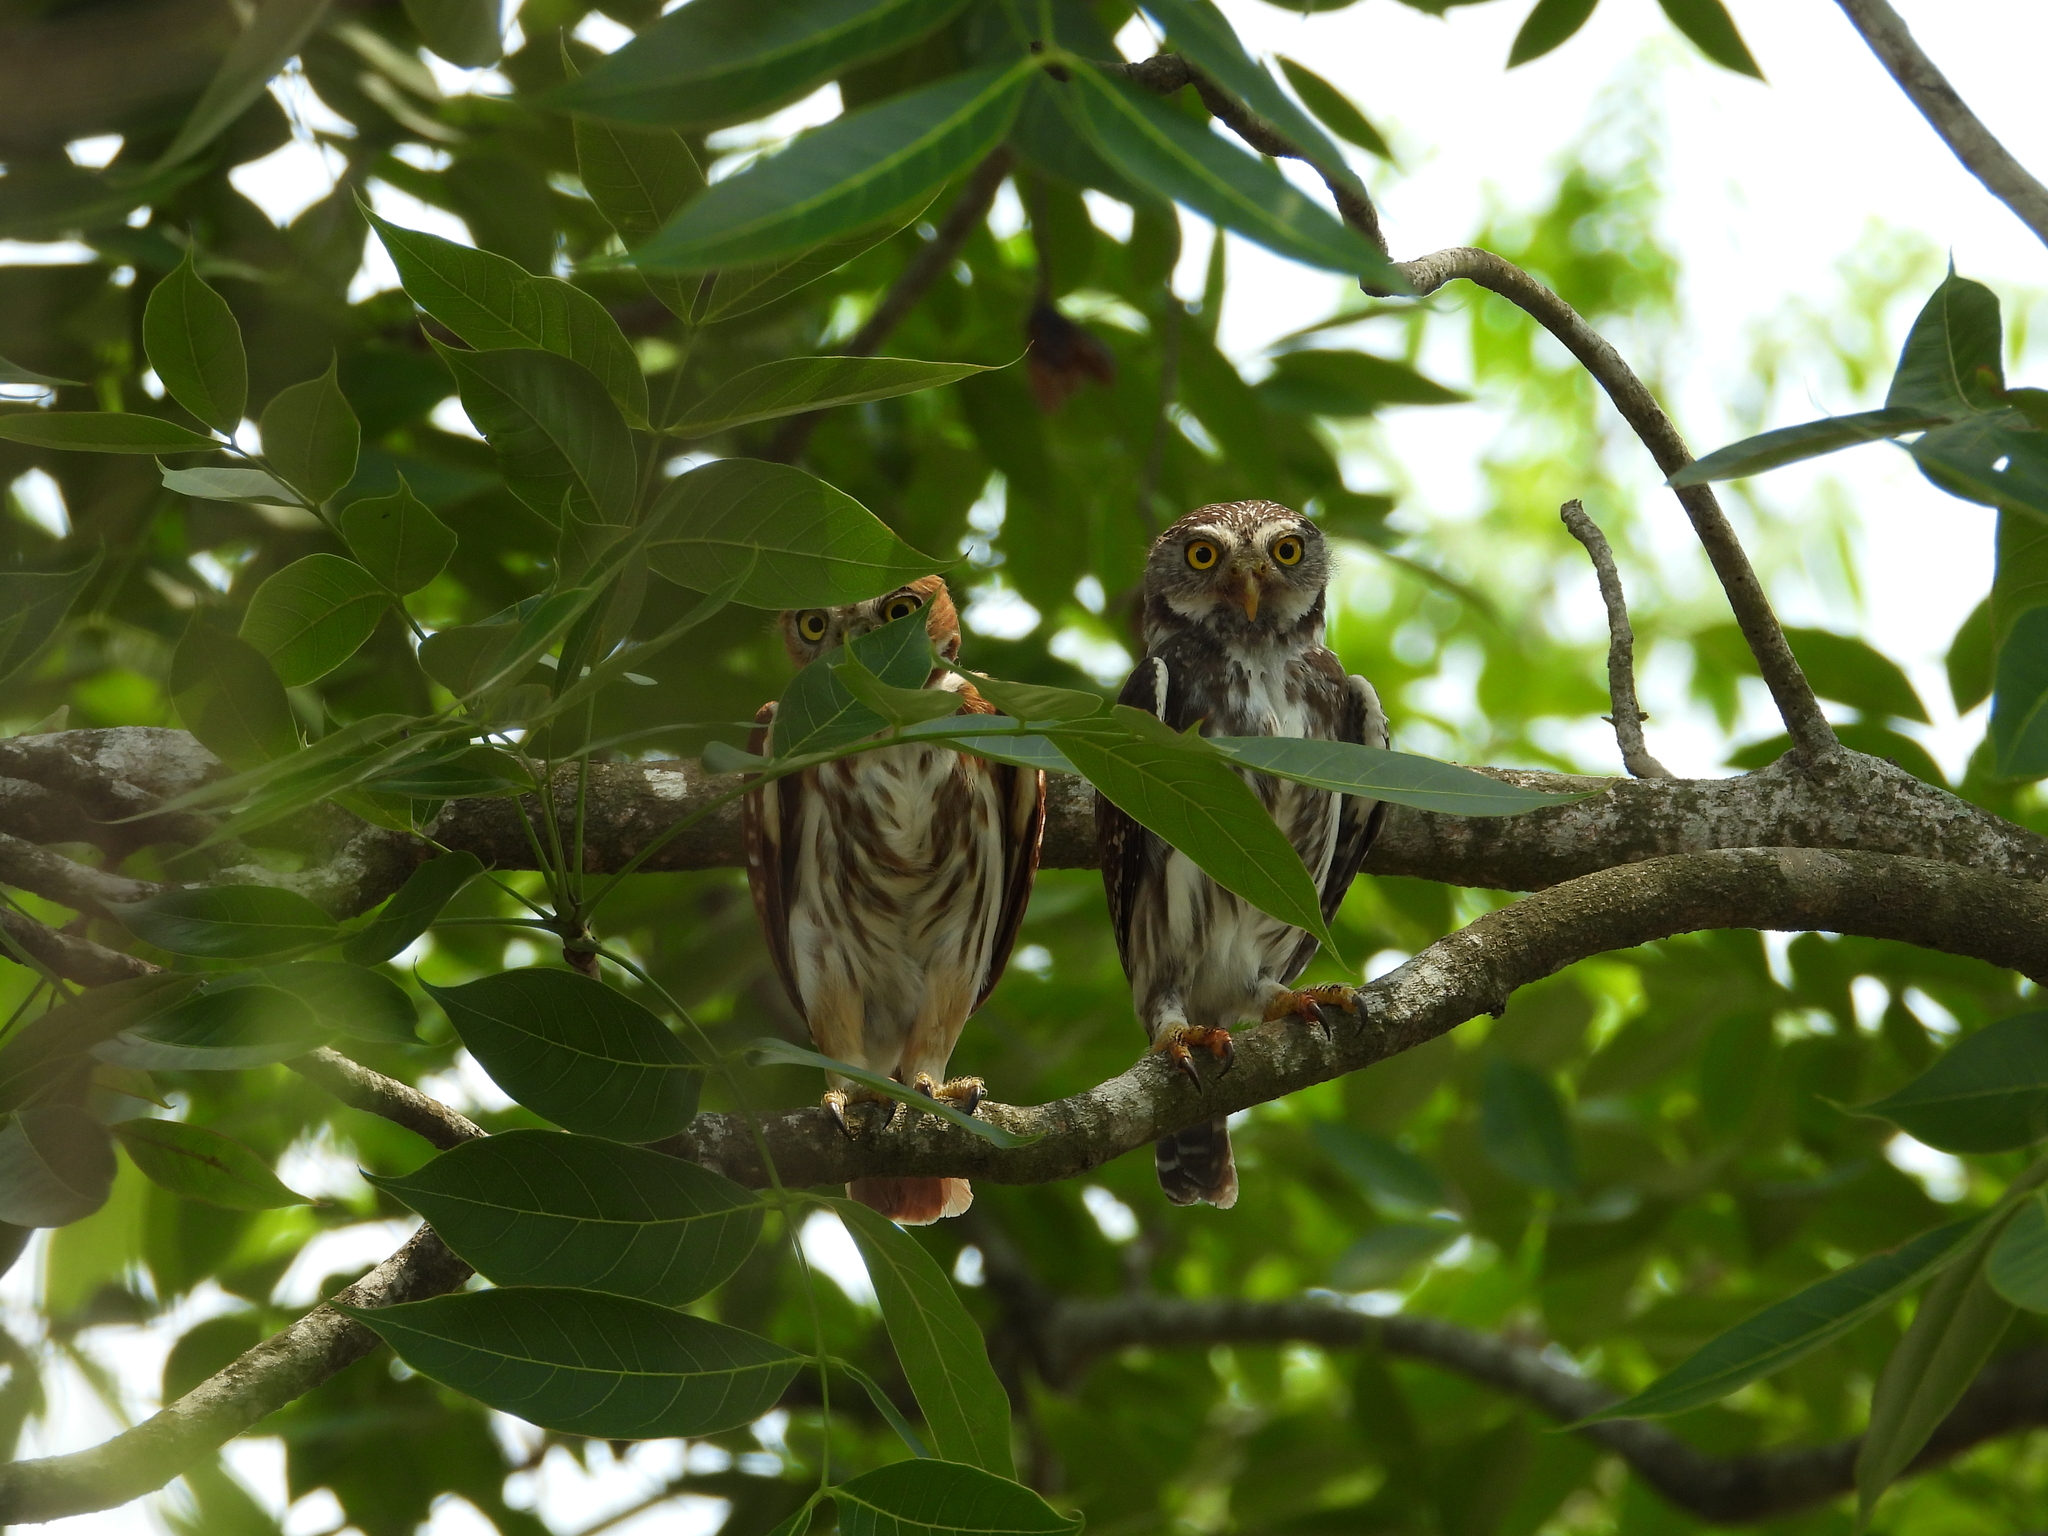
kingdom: Animalia
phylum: Chordata
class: Aves
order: Strigiformes
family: Strigidae
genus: Glaucidium
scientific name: Glaucidium brasilianum
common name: Ferruginous pygmy-owl
